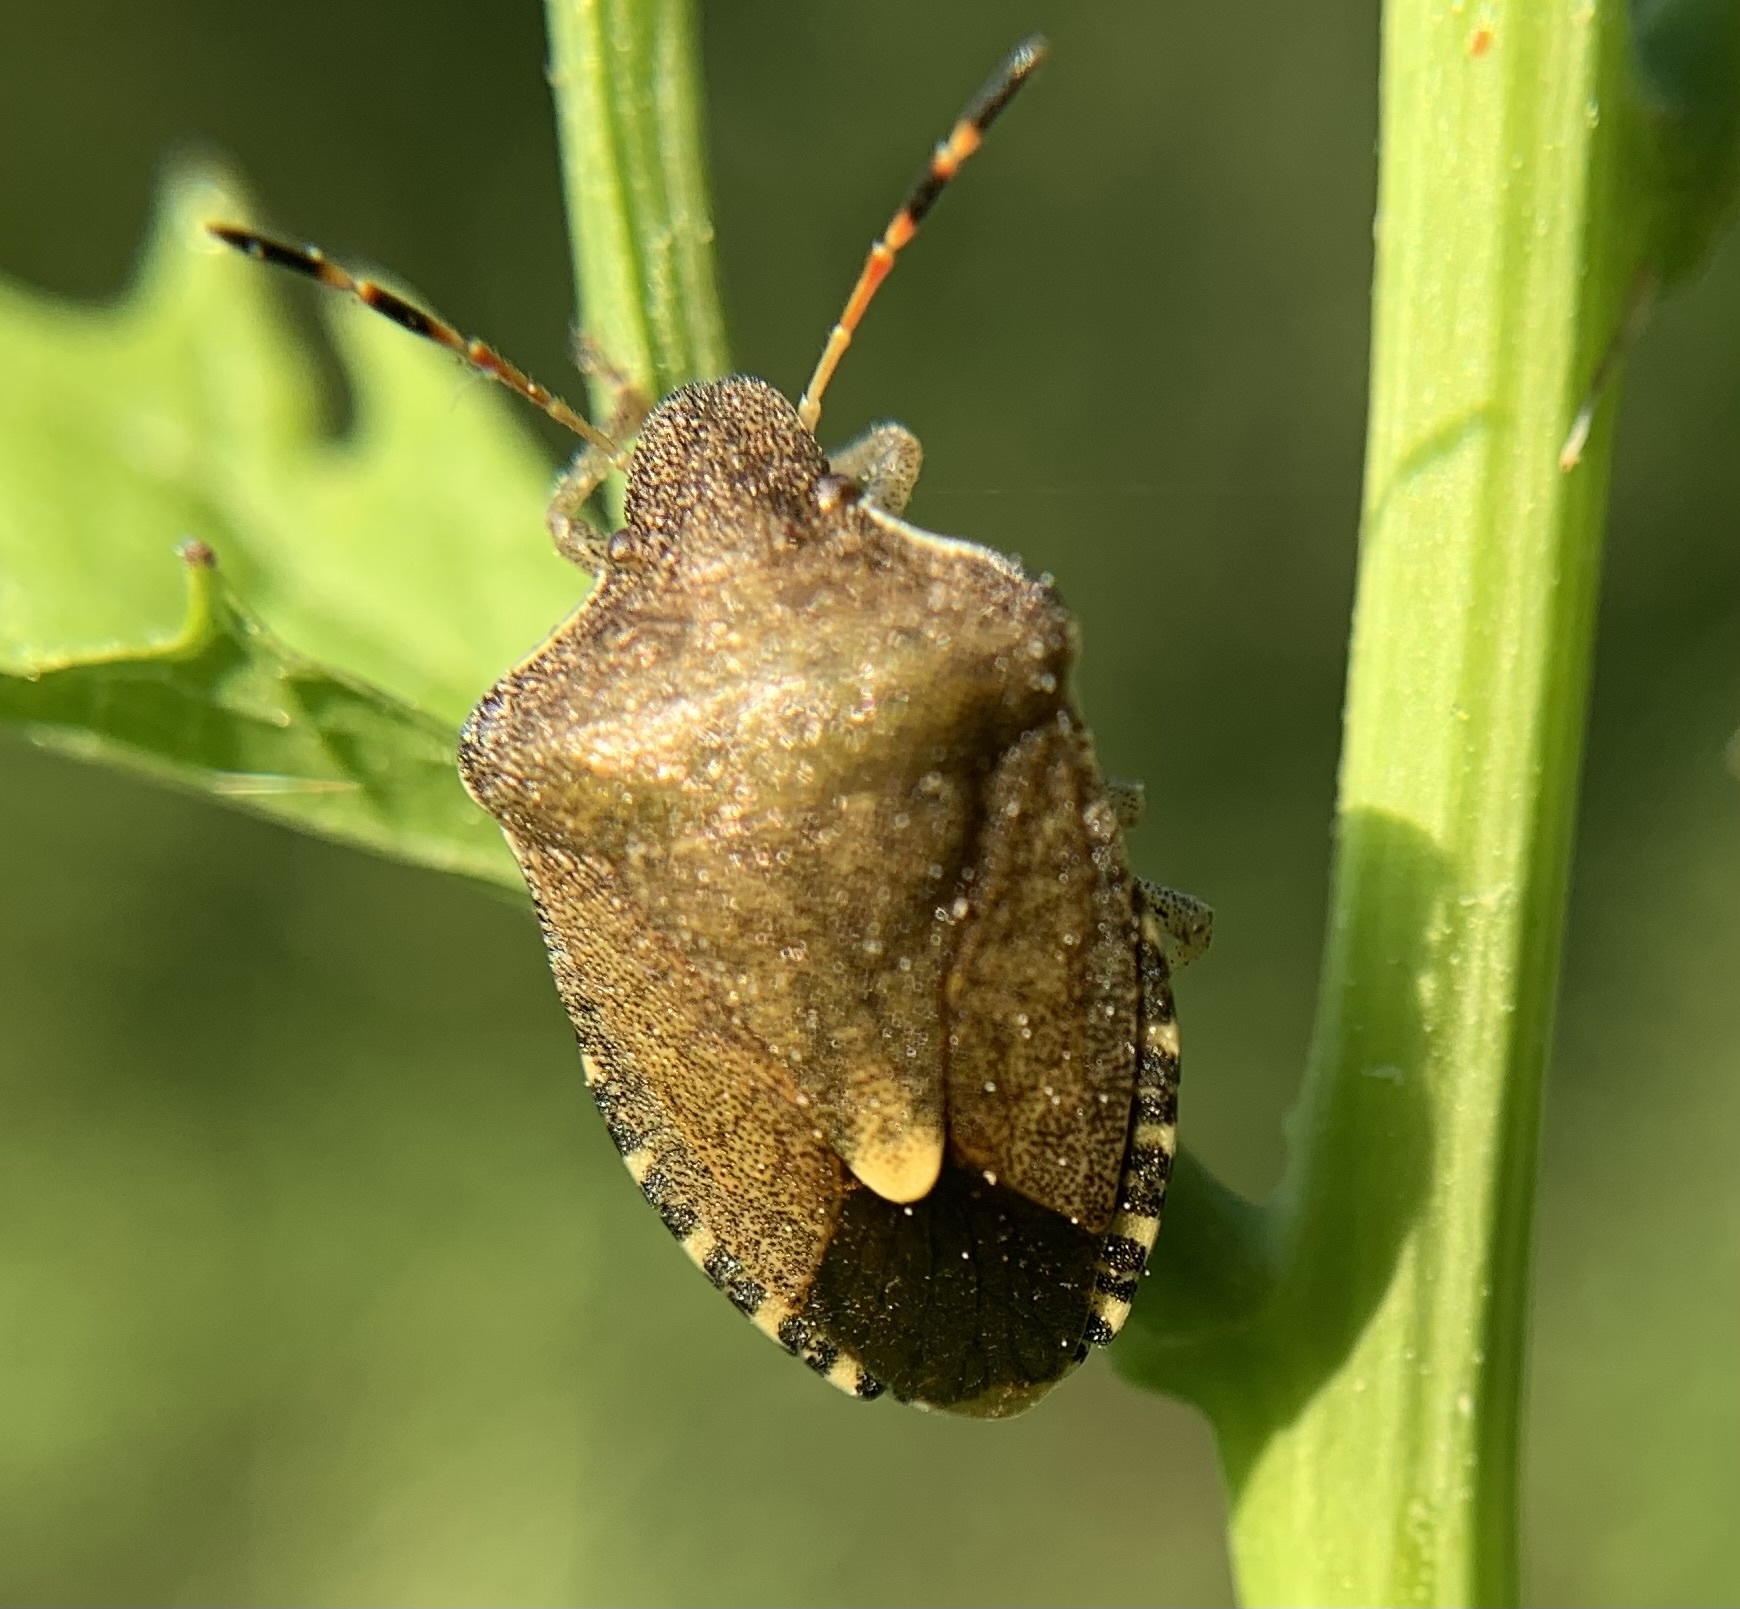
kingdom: Animalia
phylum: Arthropoda
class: Insecta
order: Hemiptera
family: Pentatomidae
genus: Holcostethus
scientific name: Holcostethus strictus
